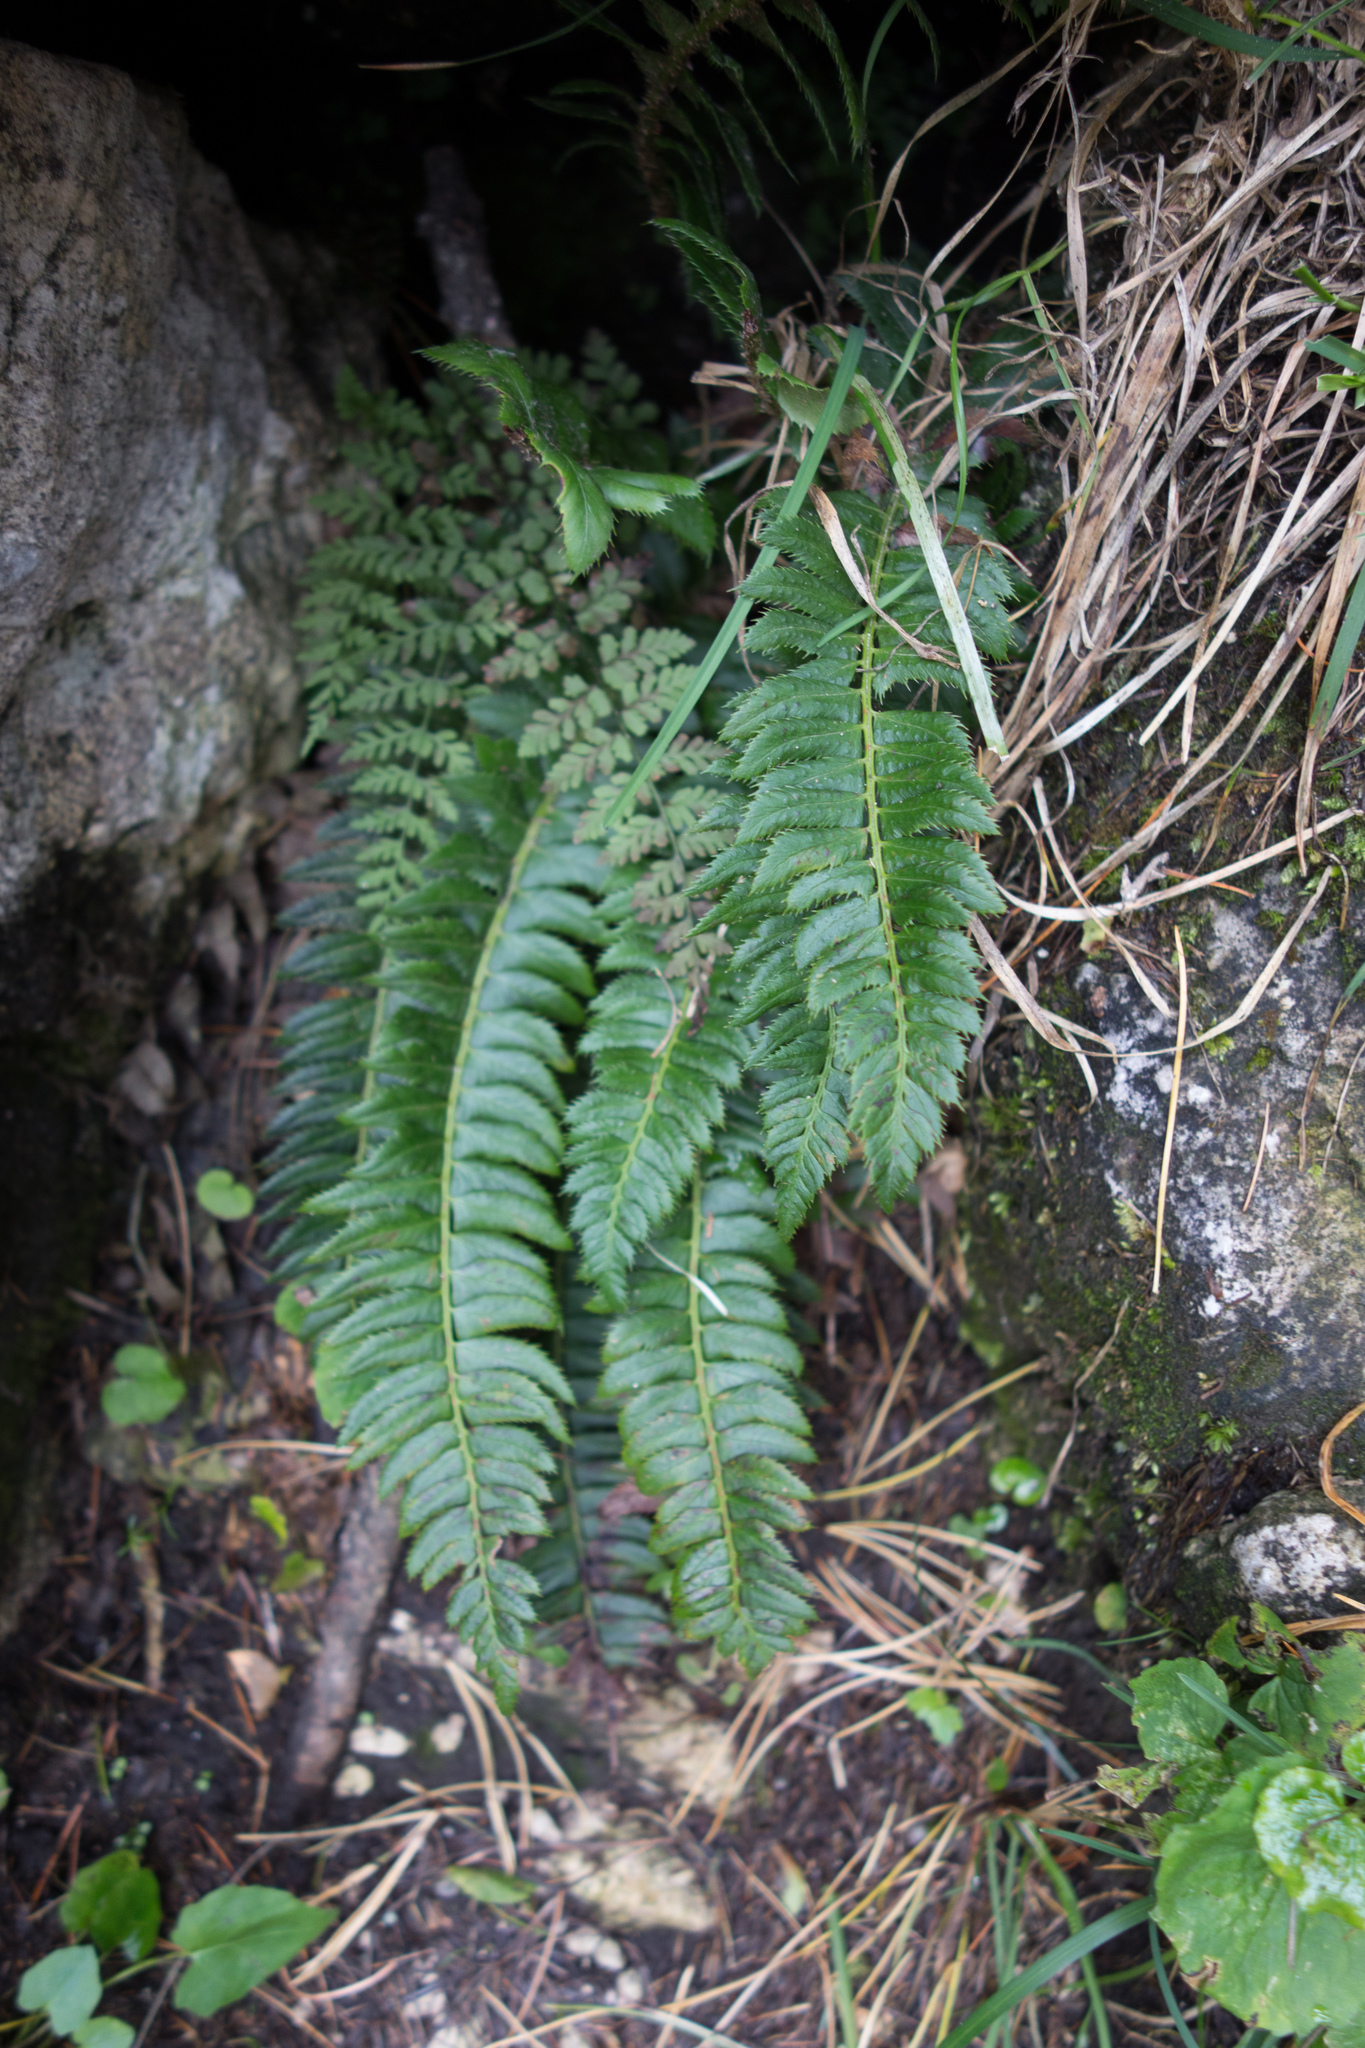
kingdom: Plantae
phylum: Tracheophyta
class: Polypodiopsida
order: Polypodiales
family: Dryopteridaceae
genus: Polystichum
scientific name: Polystichum lonchitis
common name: Holly fern
